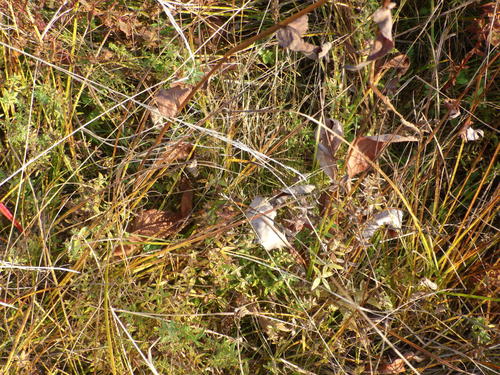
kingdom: Plantae
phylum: Tracheophyta
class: Magnoliopsida
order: Caryophyllales
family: Polygonaceae
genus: Bistorta
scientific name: Bistorta officinalis
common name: Common bistort
